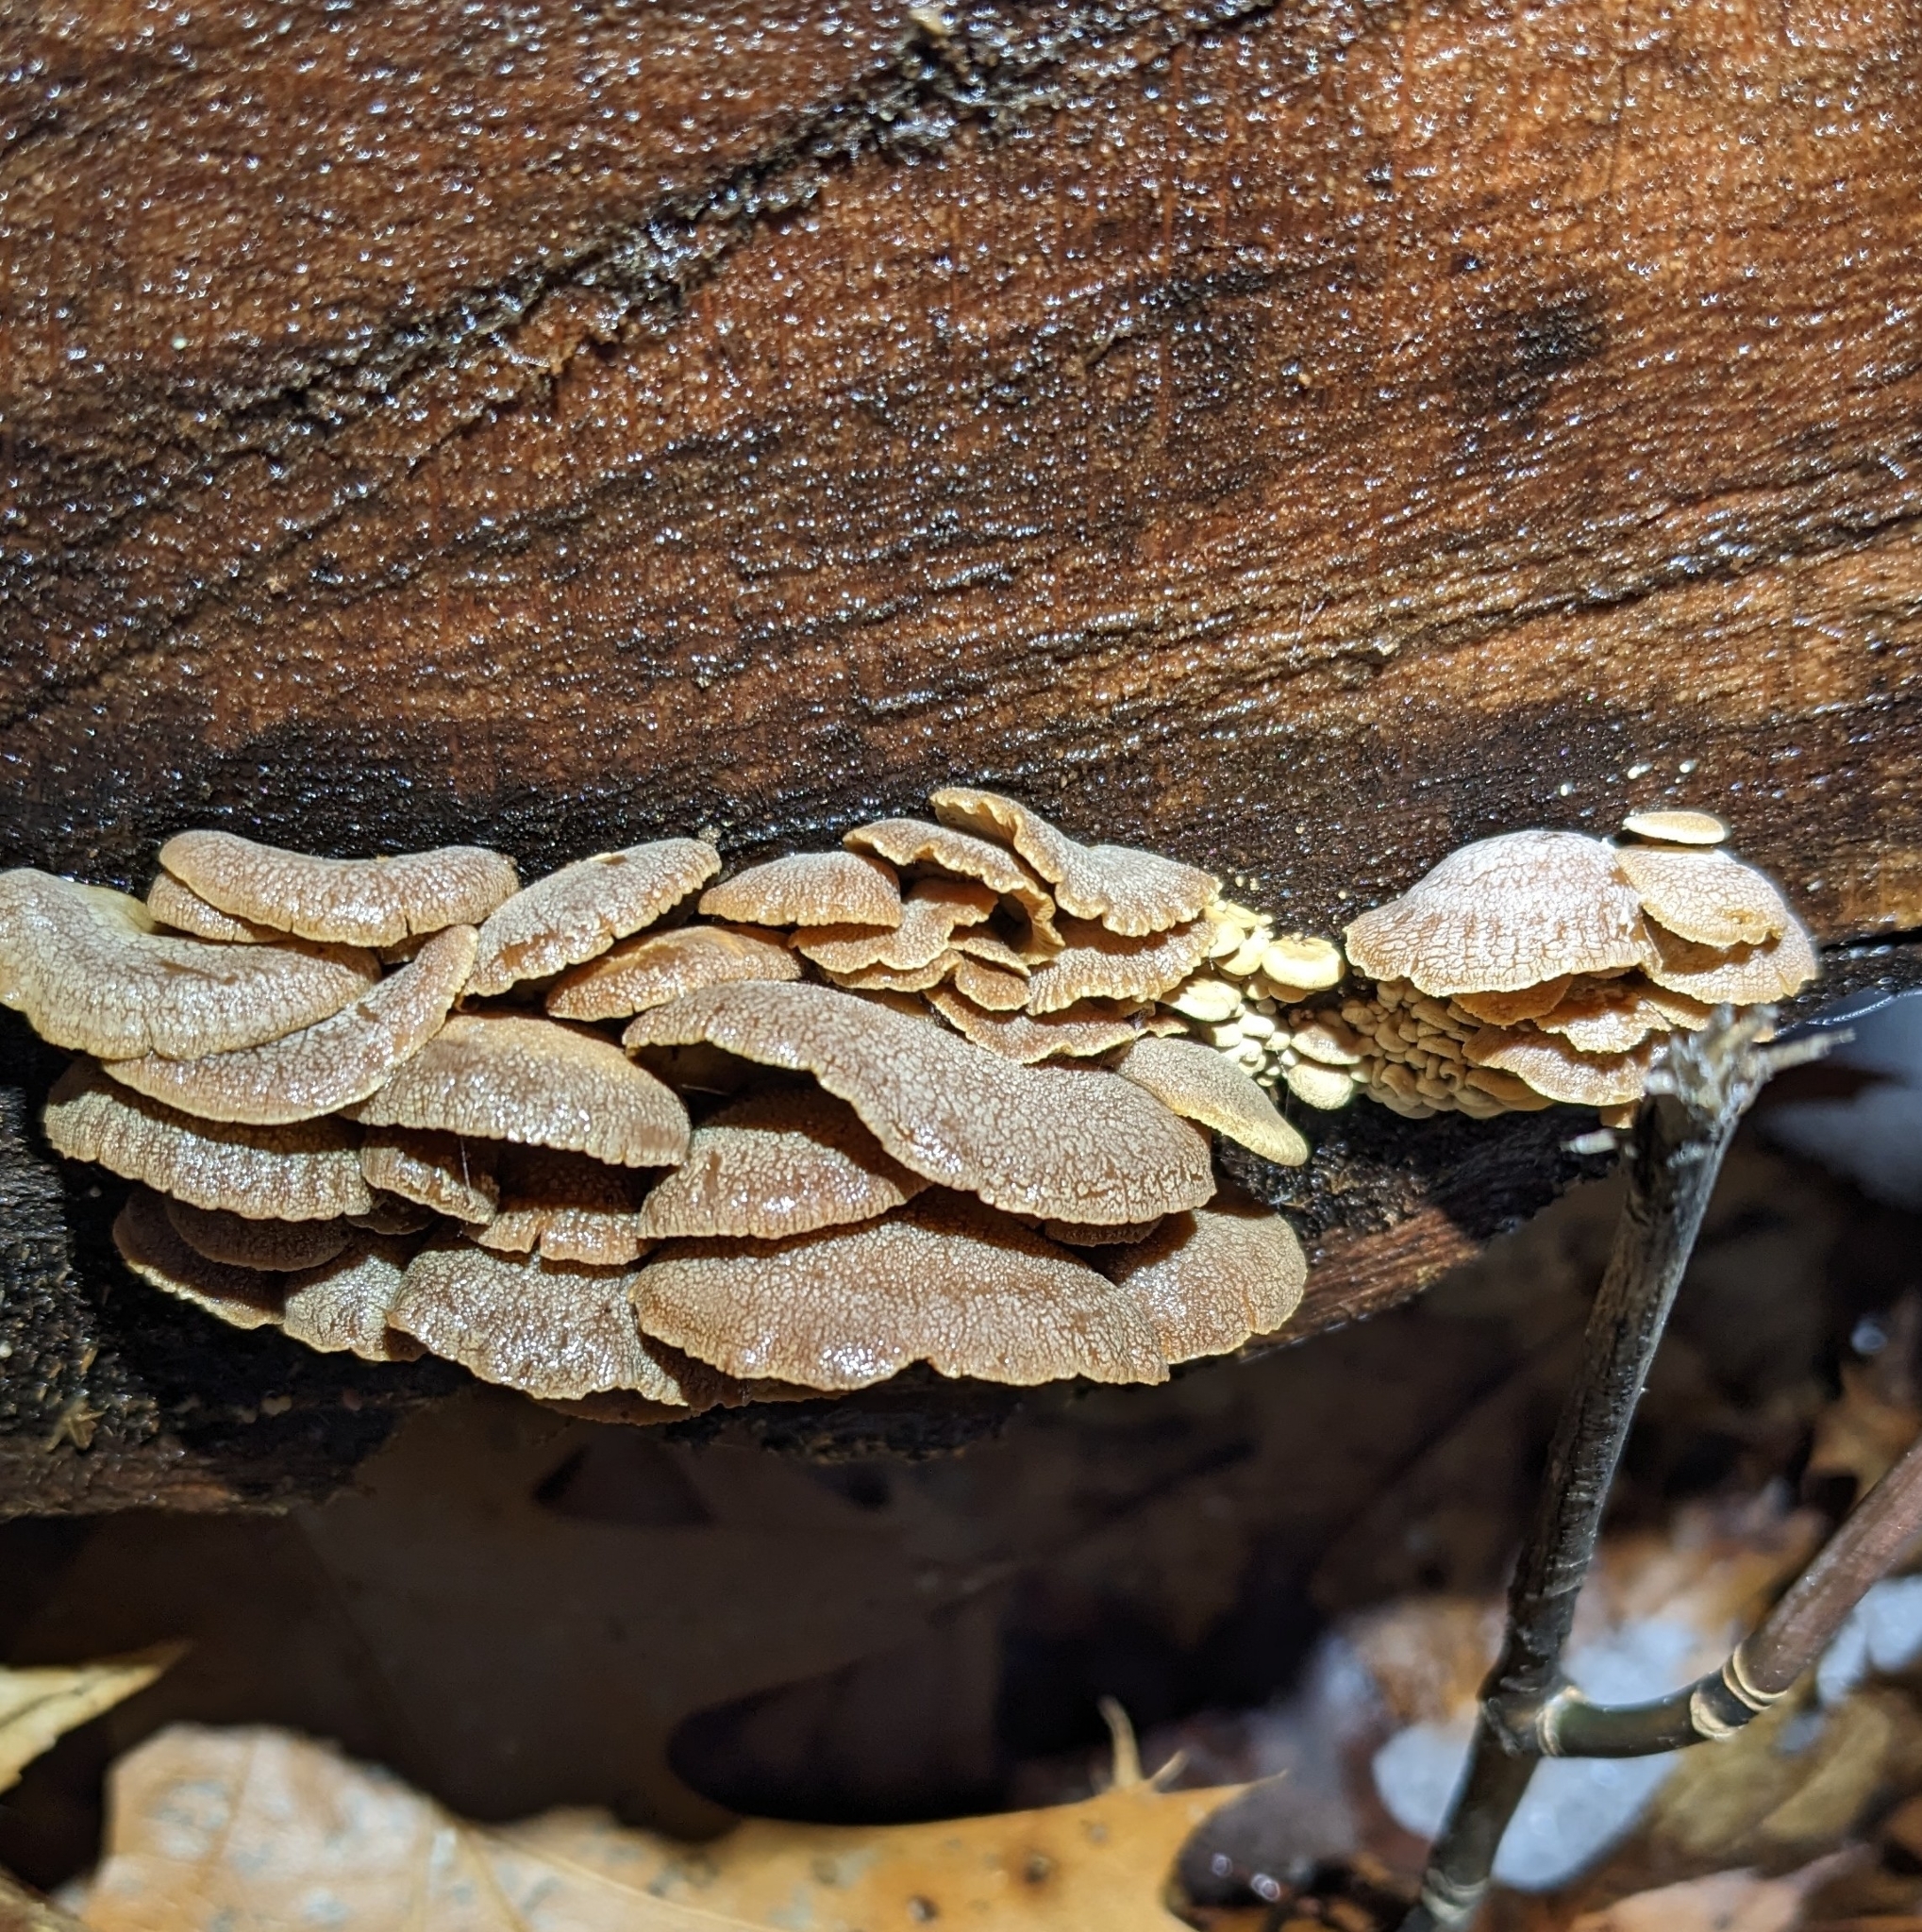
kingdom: Fungi
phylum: Basidiomycota
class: Agaricomycetes
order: Agaricales
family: Mycenaceae
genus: Panellus
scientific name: Panellus stipticus
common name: Bitter oysterling
